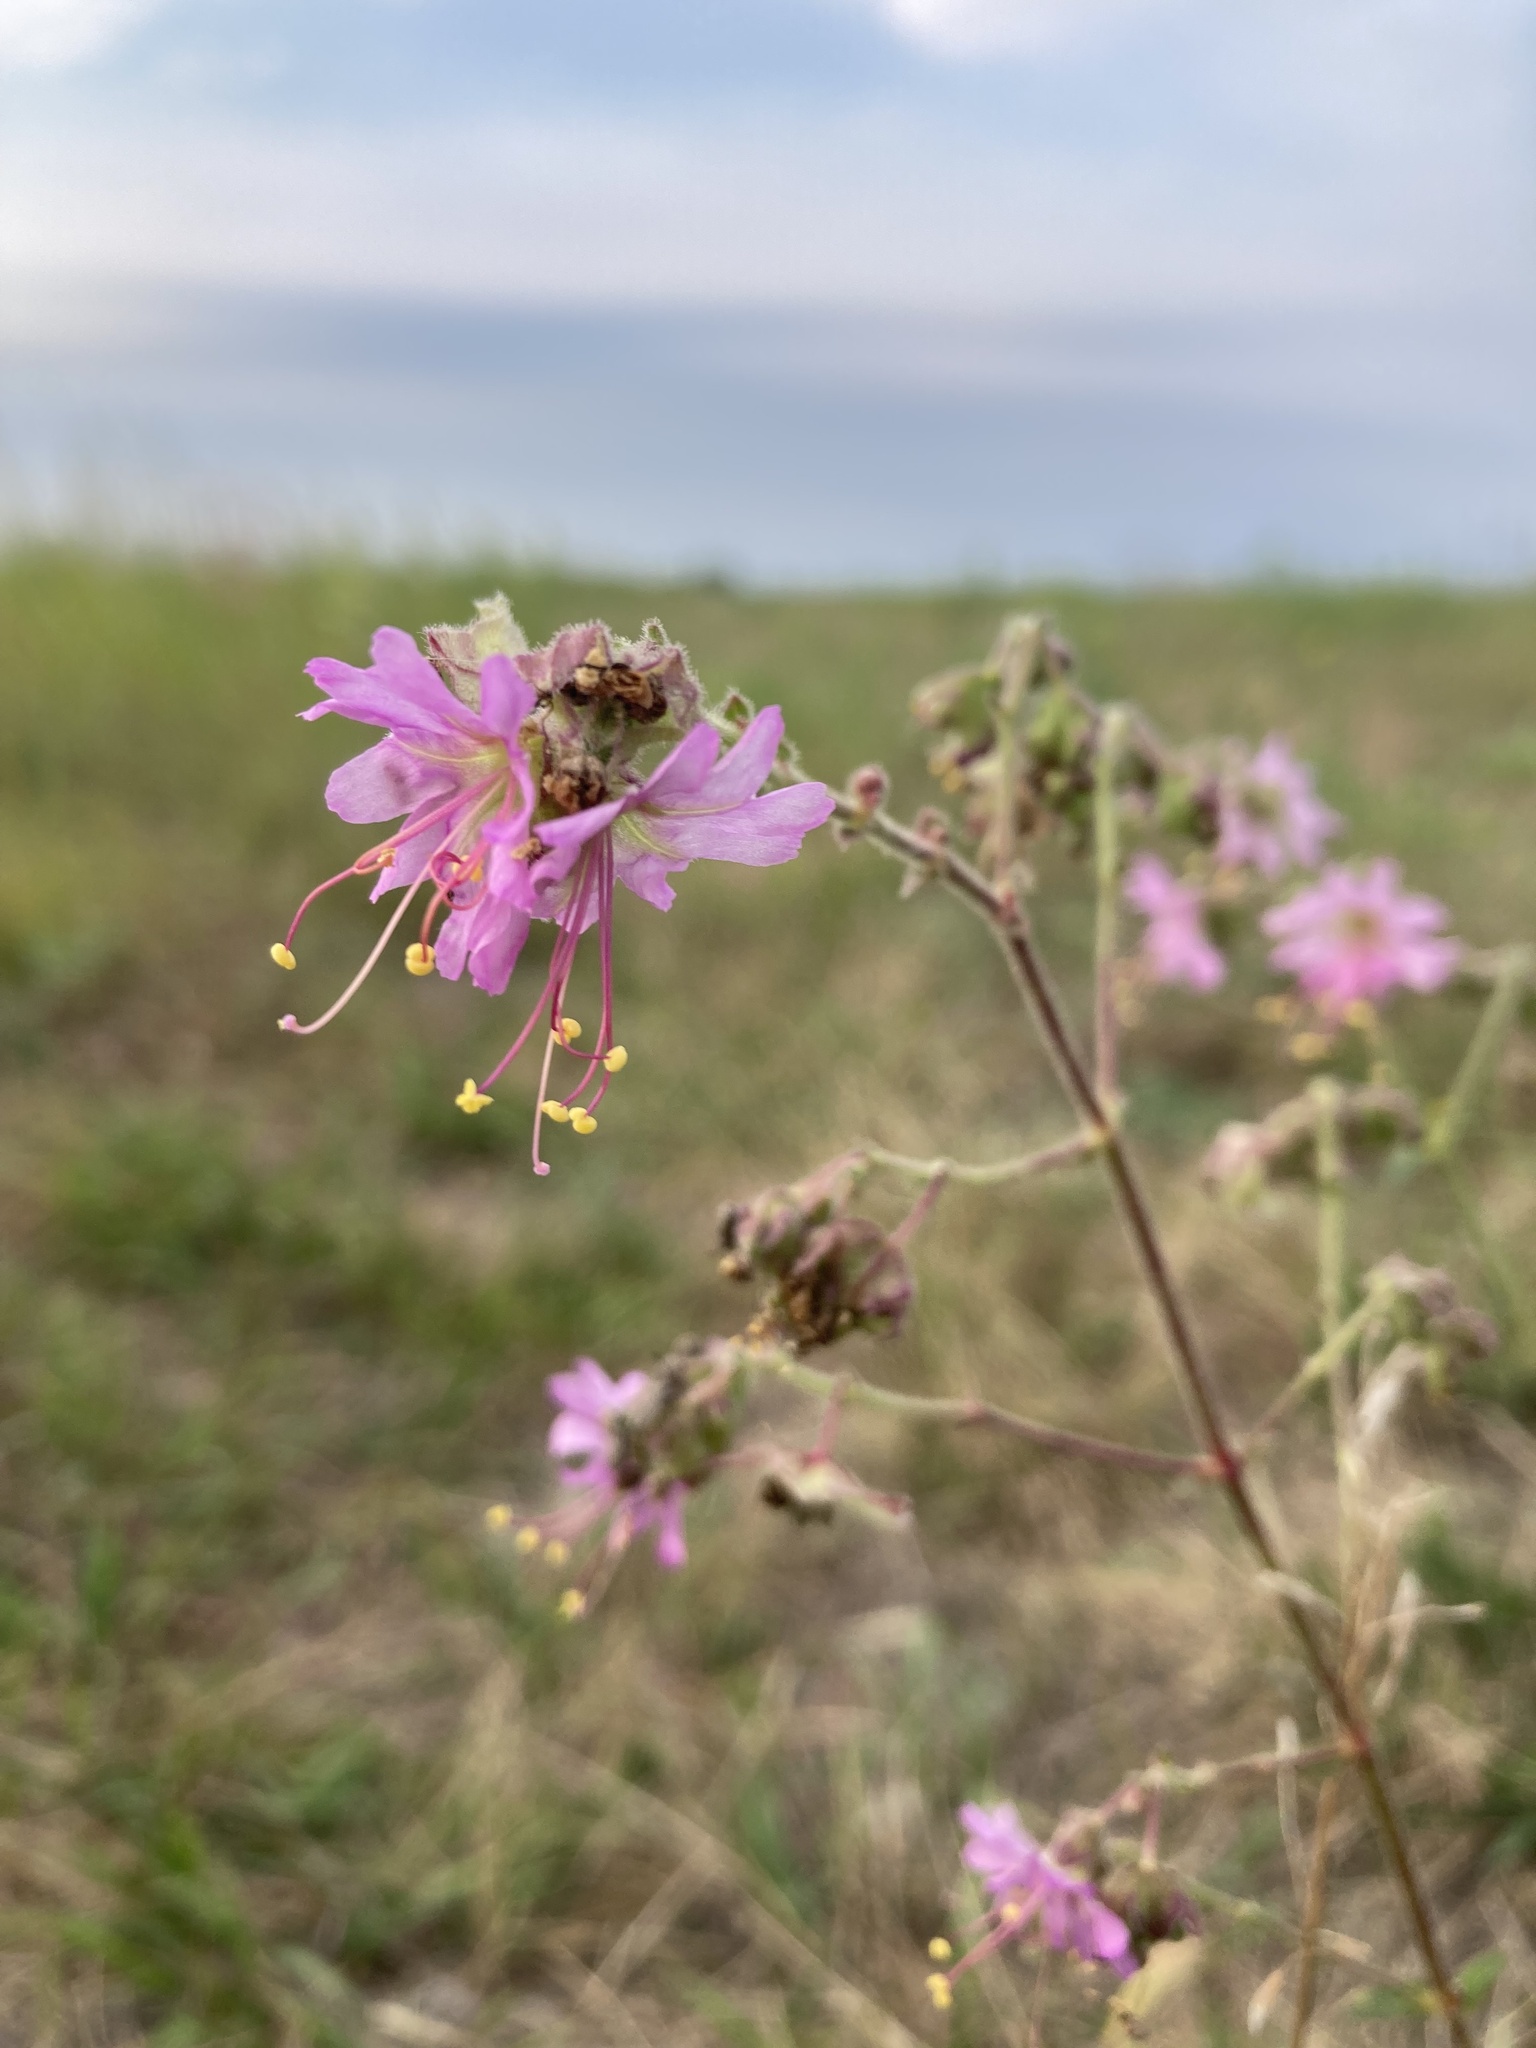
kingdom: Plantae
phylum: Tracheophyta
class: Magnoliopsida
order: Caryophyllales
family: Nyctaginaceae
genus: Mirabilis
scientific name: Mirabilis albida
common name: Hairy four-o'clock
